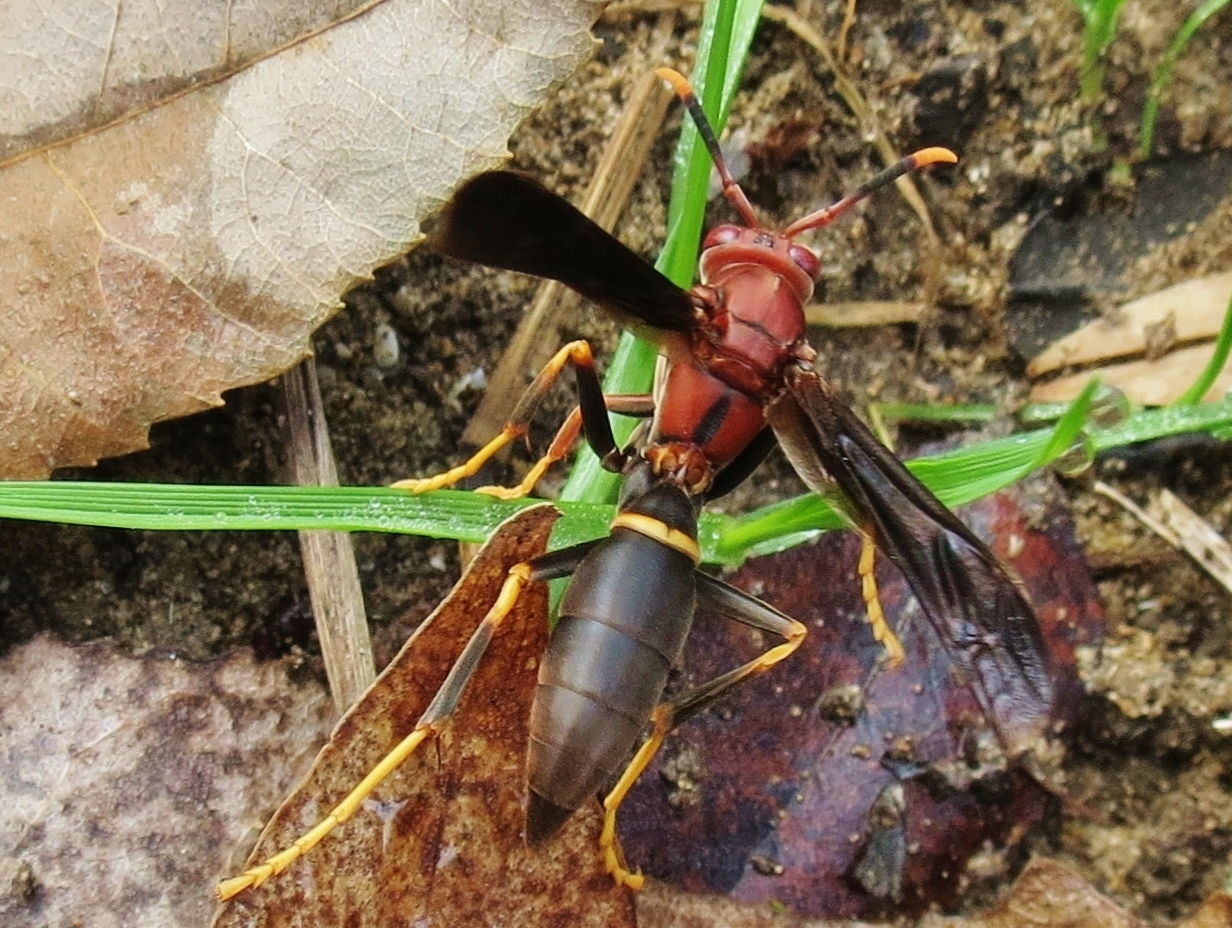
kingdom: Animalia
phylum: Arthropoda
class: Insecta
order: Hymenoptera
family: Eumenidae
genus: Polistes
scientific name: Polistes annularis
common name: Ringed paper wasp
